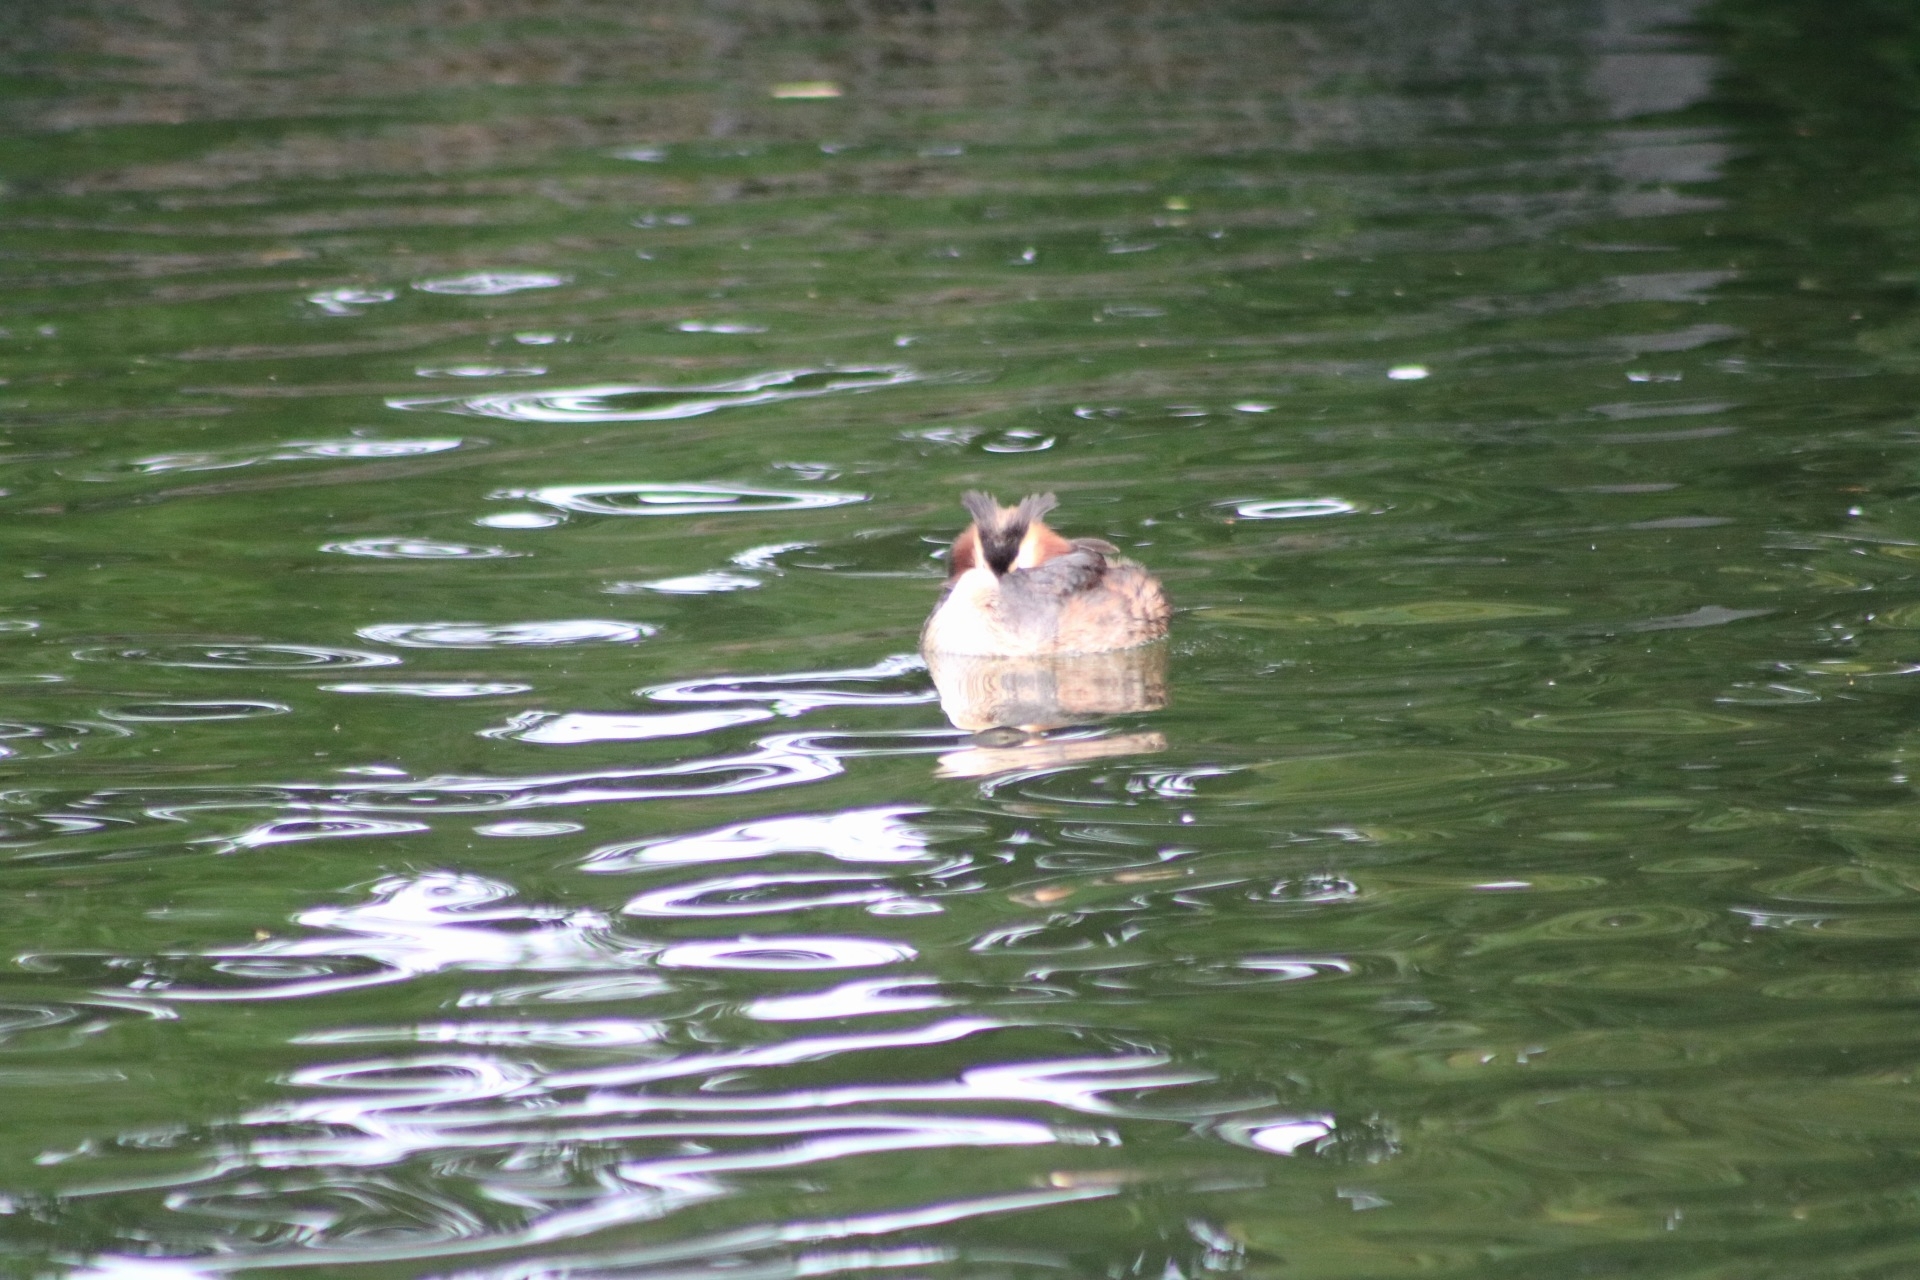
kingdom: Animalia
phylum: Chordata
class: Aves
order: Podicipediformes
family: Podicipedidae
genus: Podiceps
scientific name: Podiceps cristatus
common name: Great crested grebe
